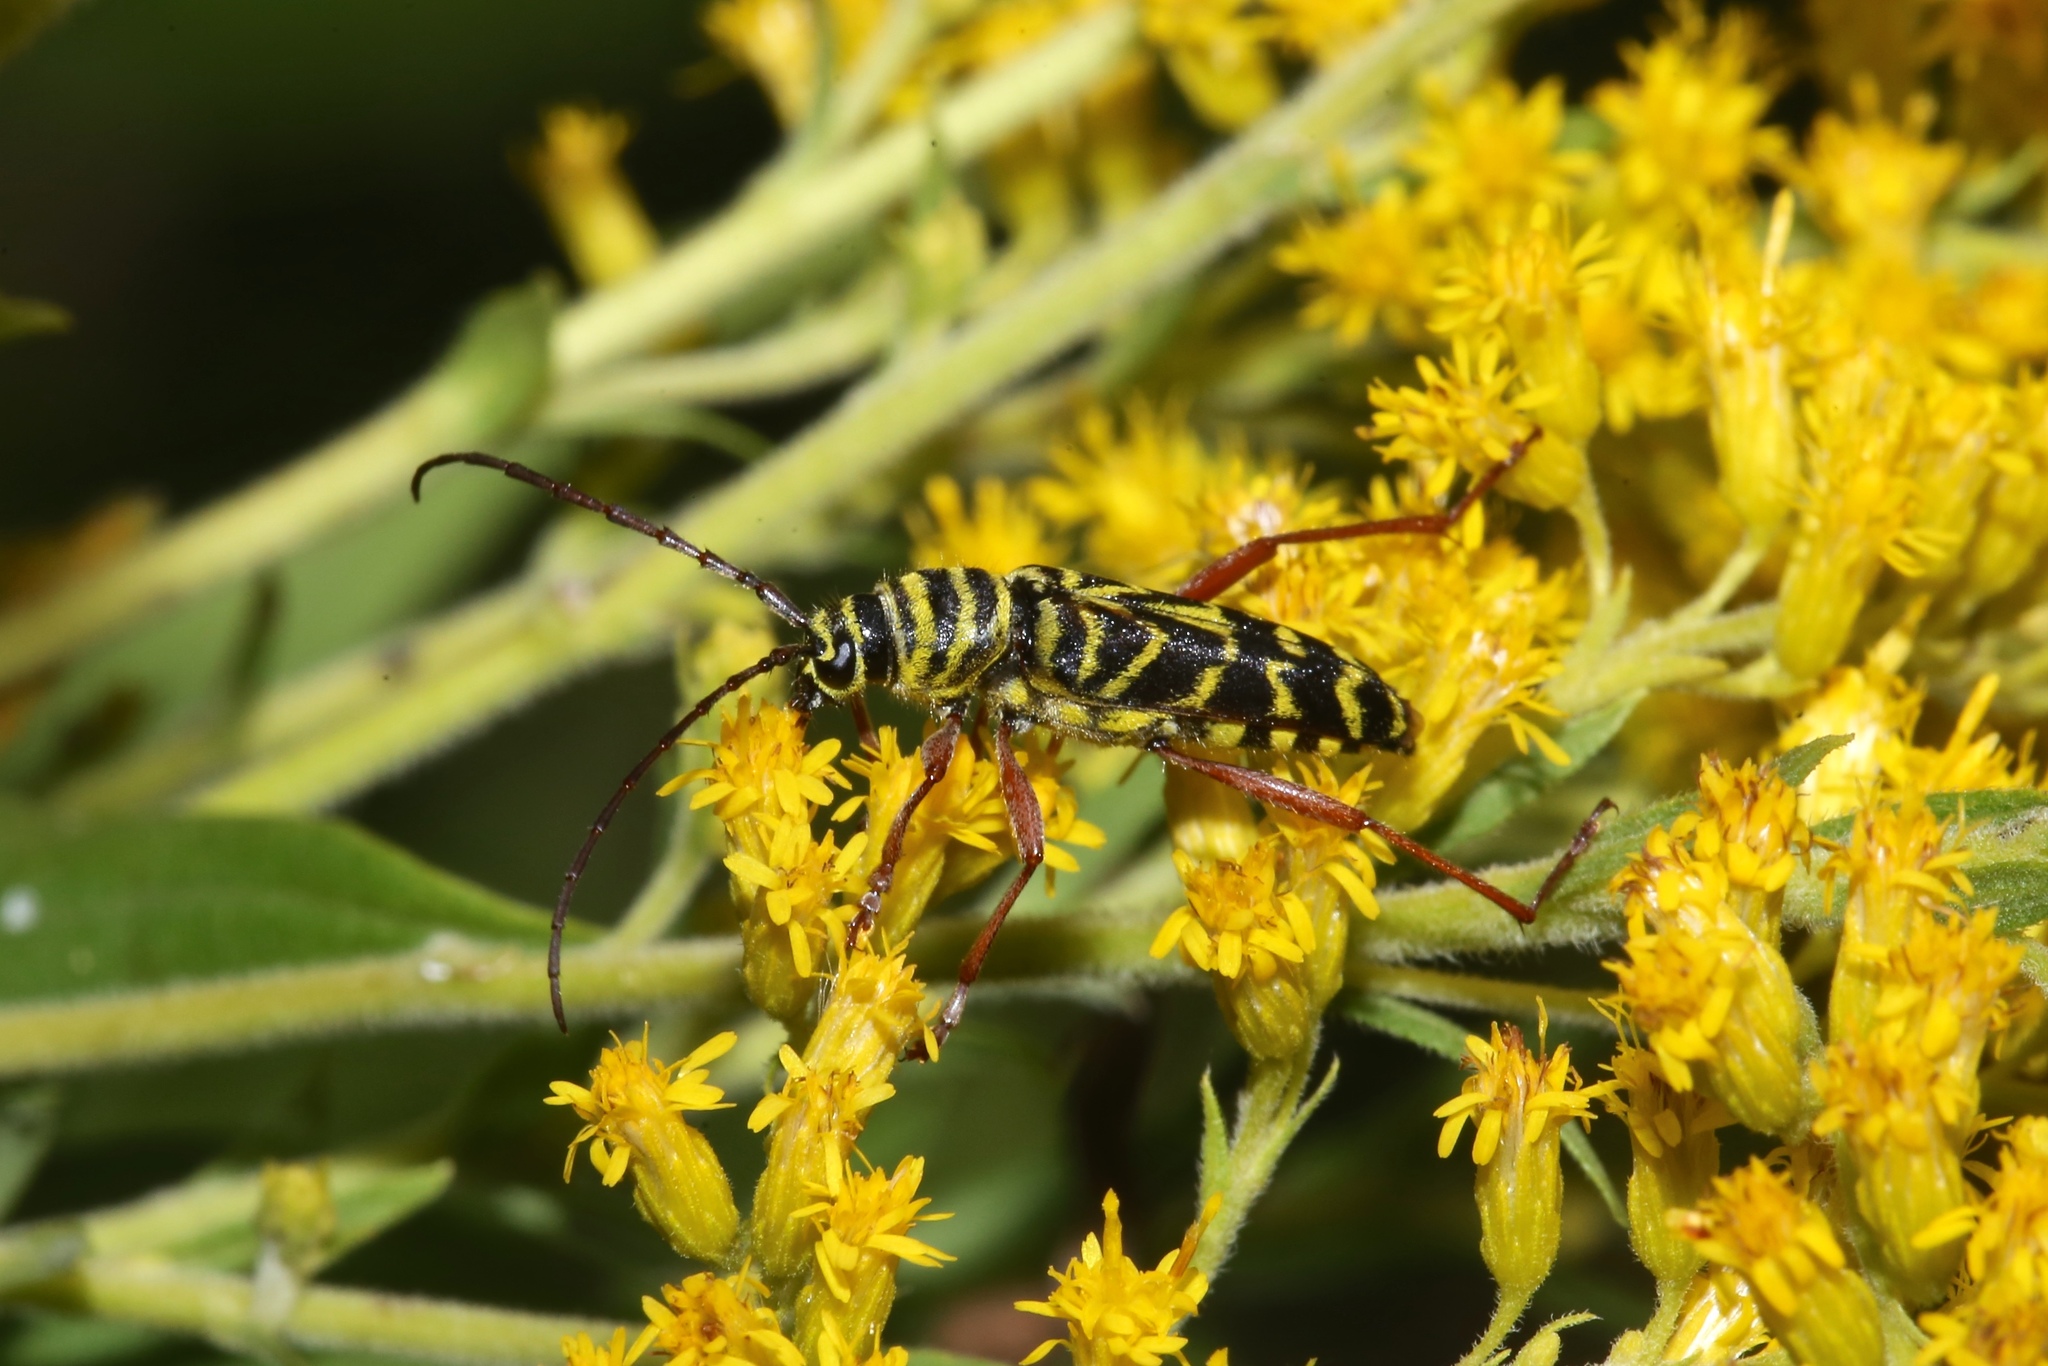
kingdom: Animalia
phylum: Arthropoda
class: Insecta
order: Coleoptera
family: Cerambycidae
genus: Megacyllene
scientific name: Megacyllene robiniae
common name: Locust borer
